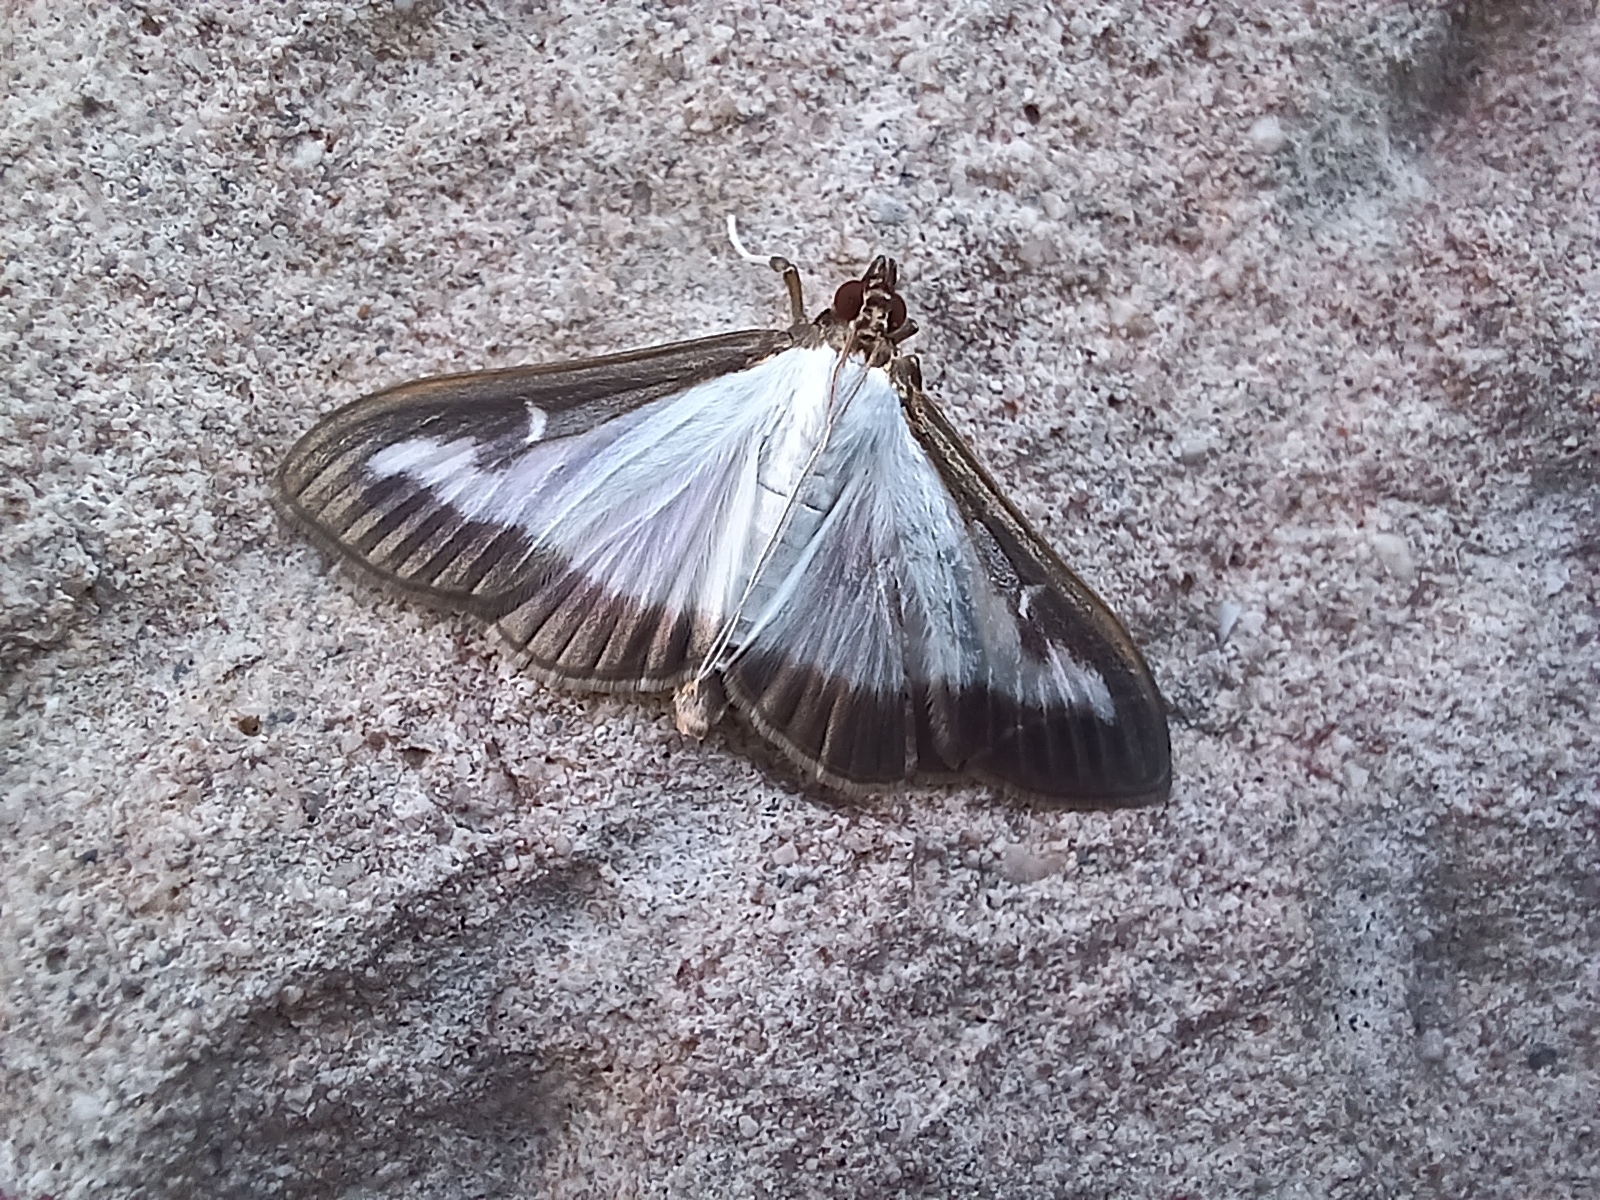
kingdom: Animalia
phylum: Arthropoda
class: Insecta
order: Lepidoptera
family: Crambidae
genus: Cydalima
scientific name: Cydalima perspectalis
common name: Box tree moth
